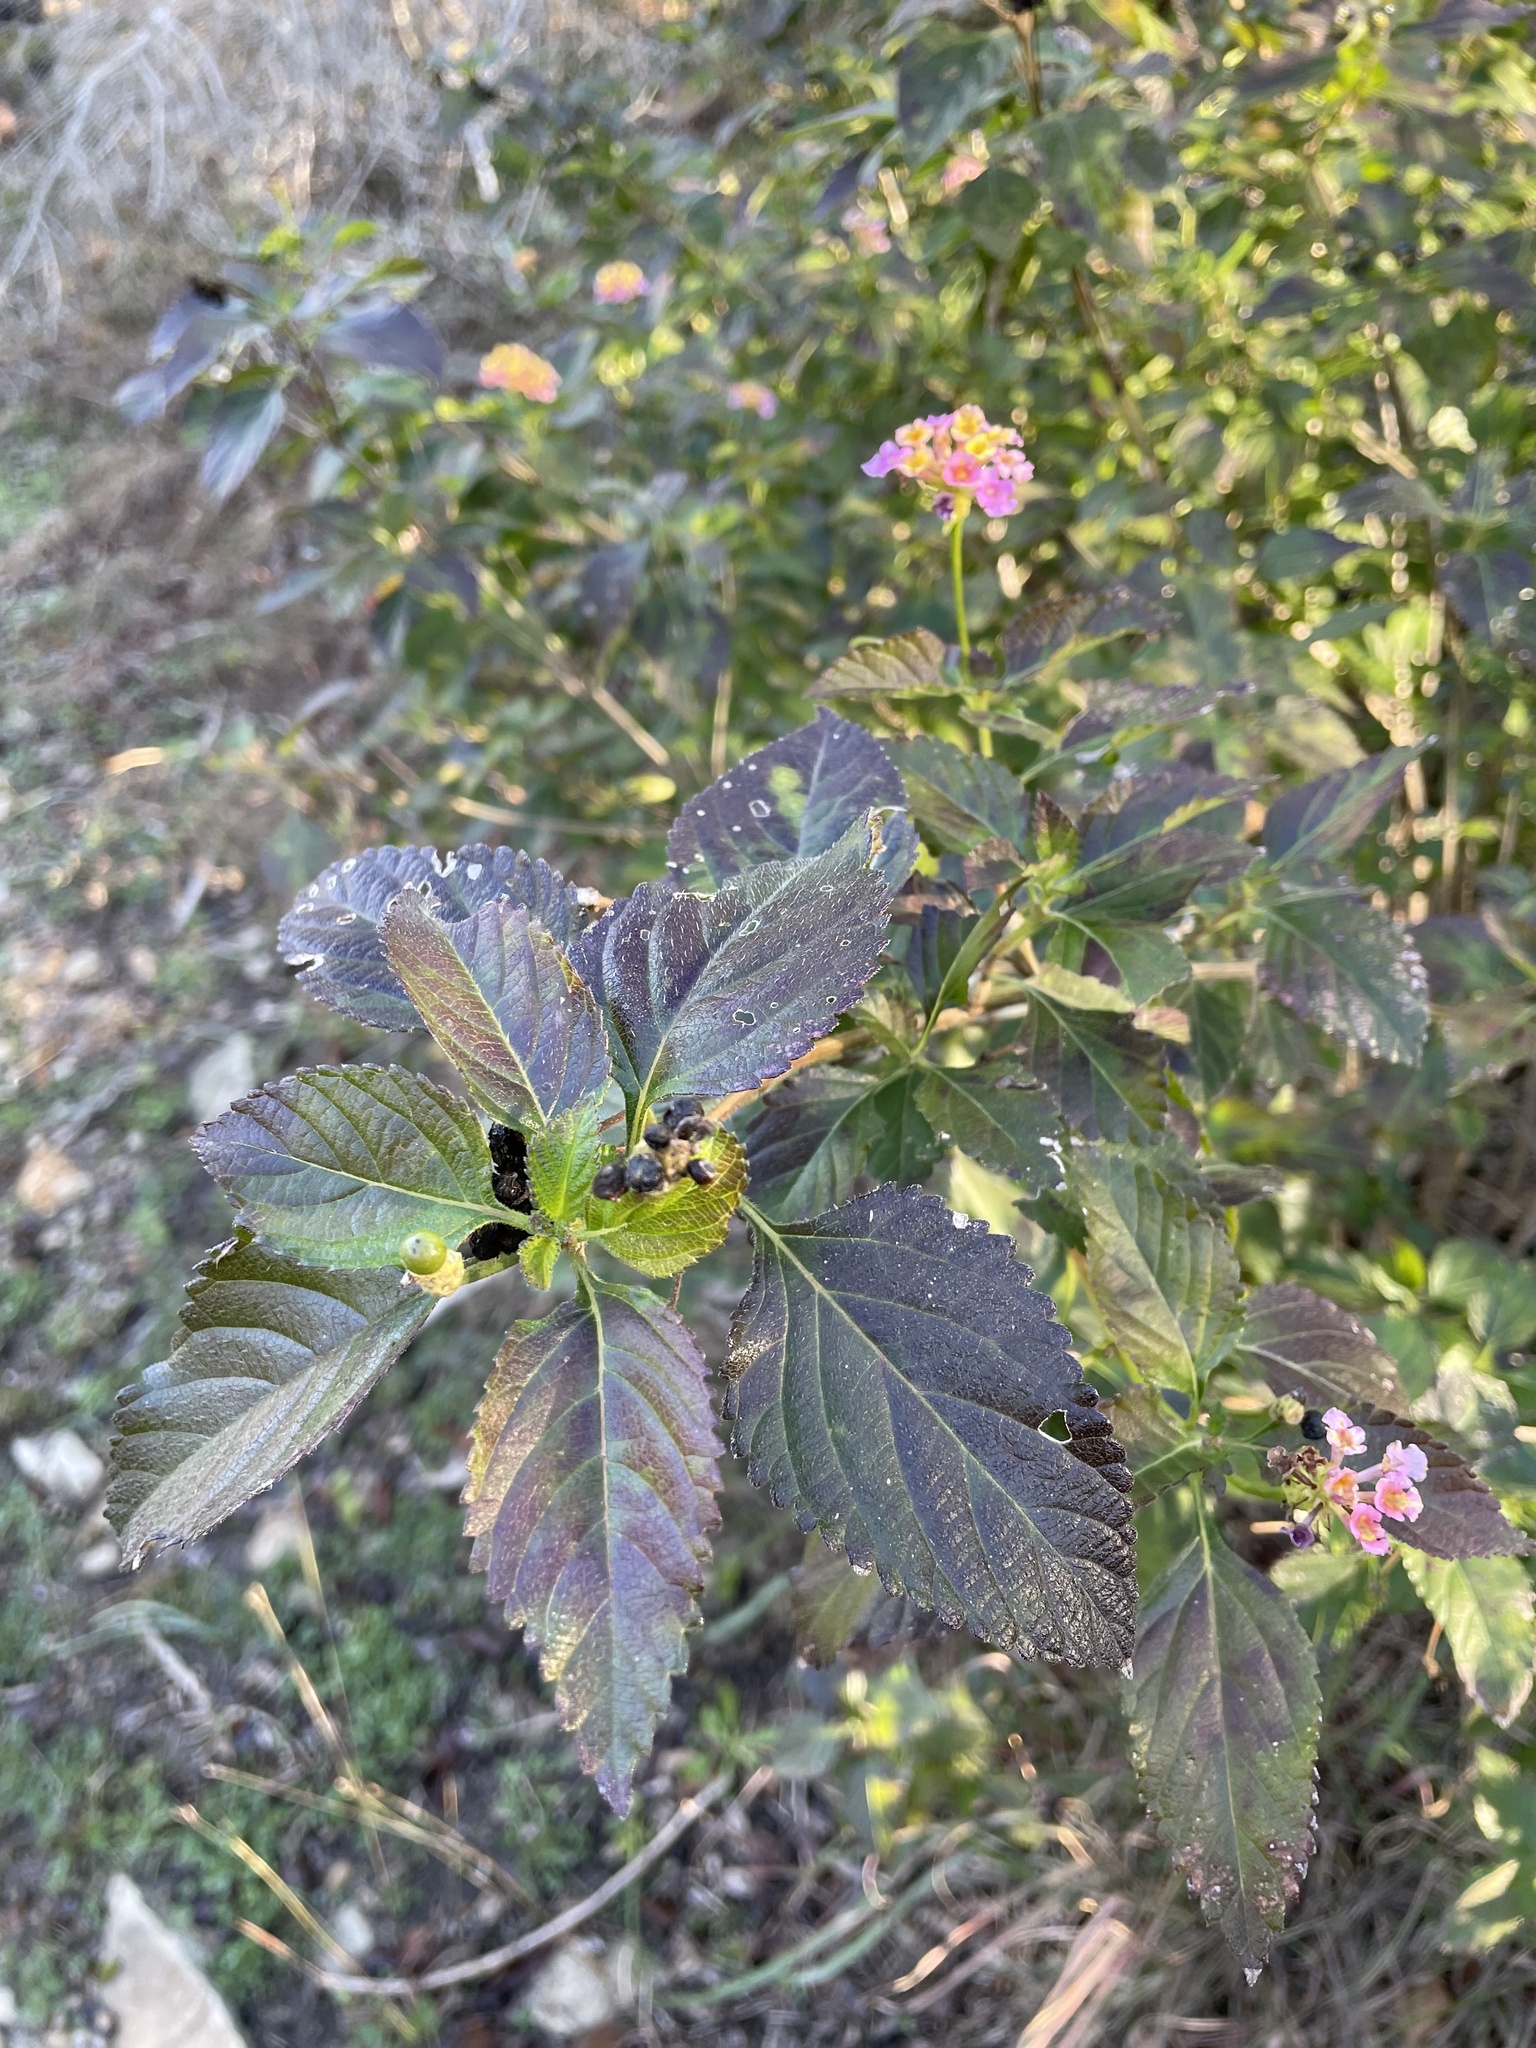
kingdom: Plantae
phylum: Tracheophyta
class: Magnoliopsida
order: Lamiales
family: Verbenaceae
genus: Lantana
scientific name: Lantana strigocamara
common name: Lantana
